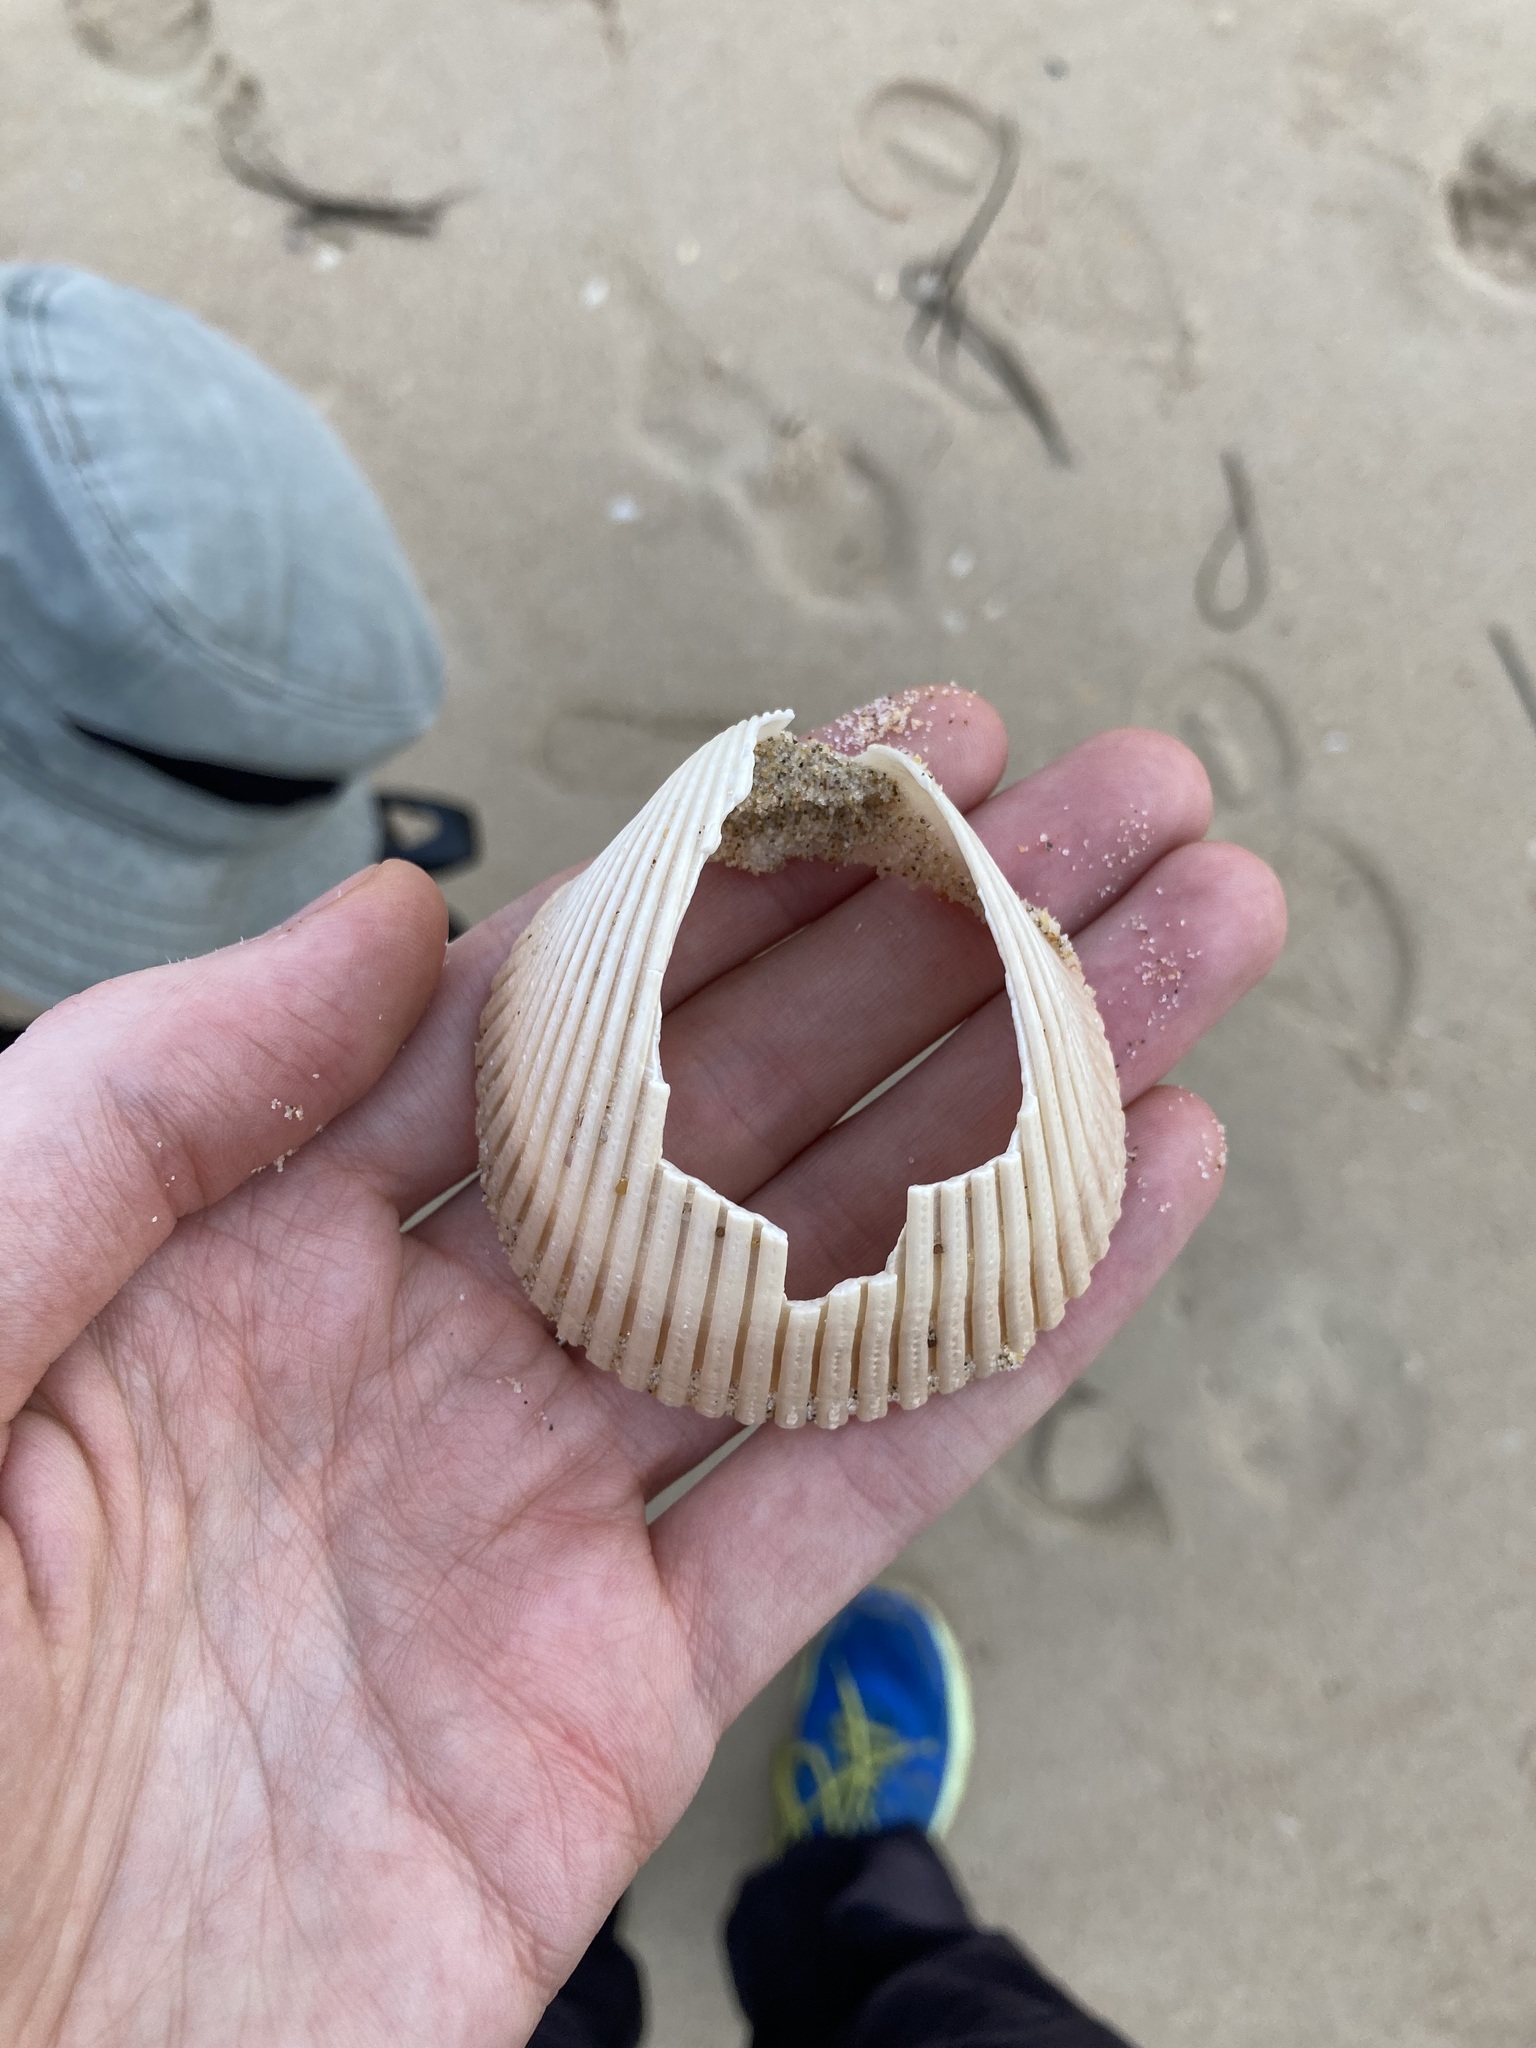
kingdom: Animalia
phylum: Mollusca
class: Bivalvia
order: Cardiida
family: Cardiidae
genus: Vepricardium
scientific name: Vepricardium multispinosum
